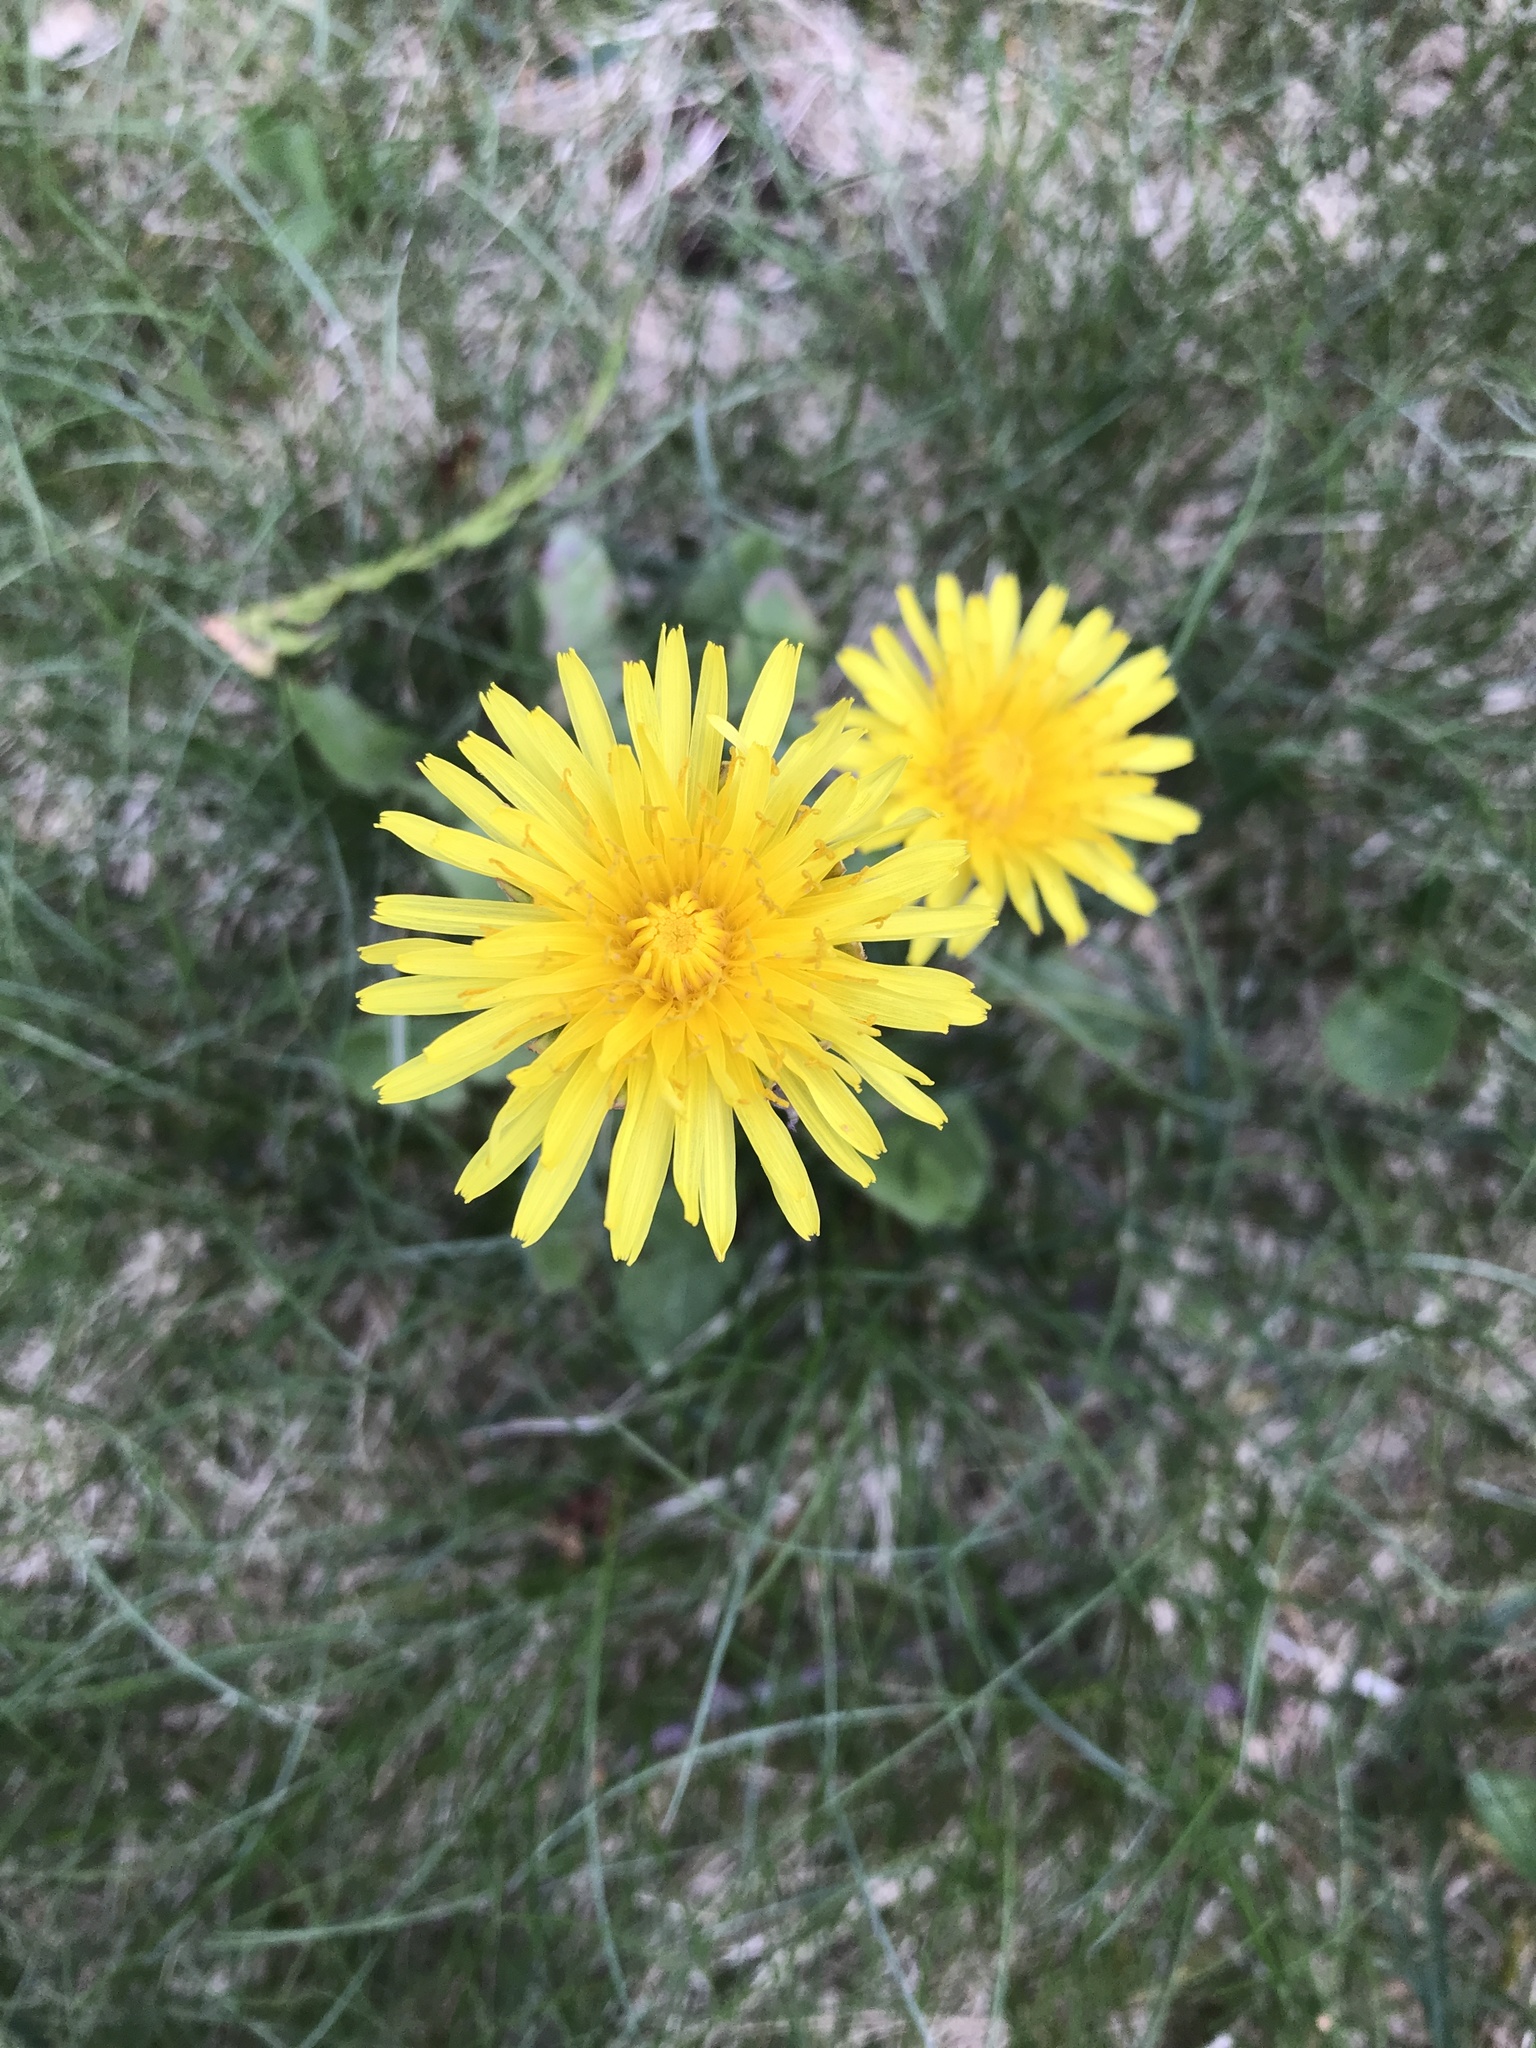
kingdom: Plantae
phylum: Tracheophyta
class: Magnoliopsida
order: Asterales
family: Asteraceae
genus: Taraxacum
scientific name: Taraxacum officinale
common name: Common dandelion
